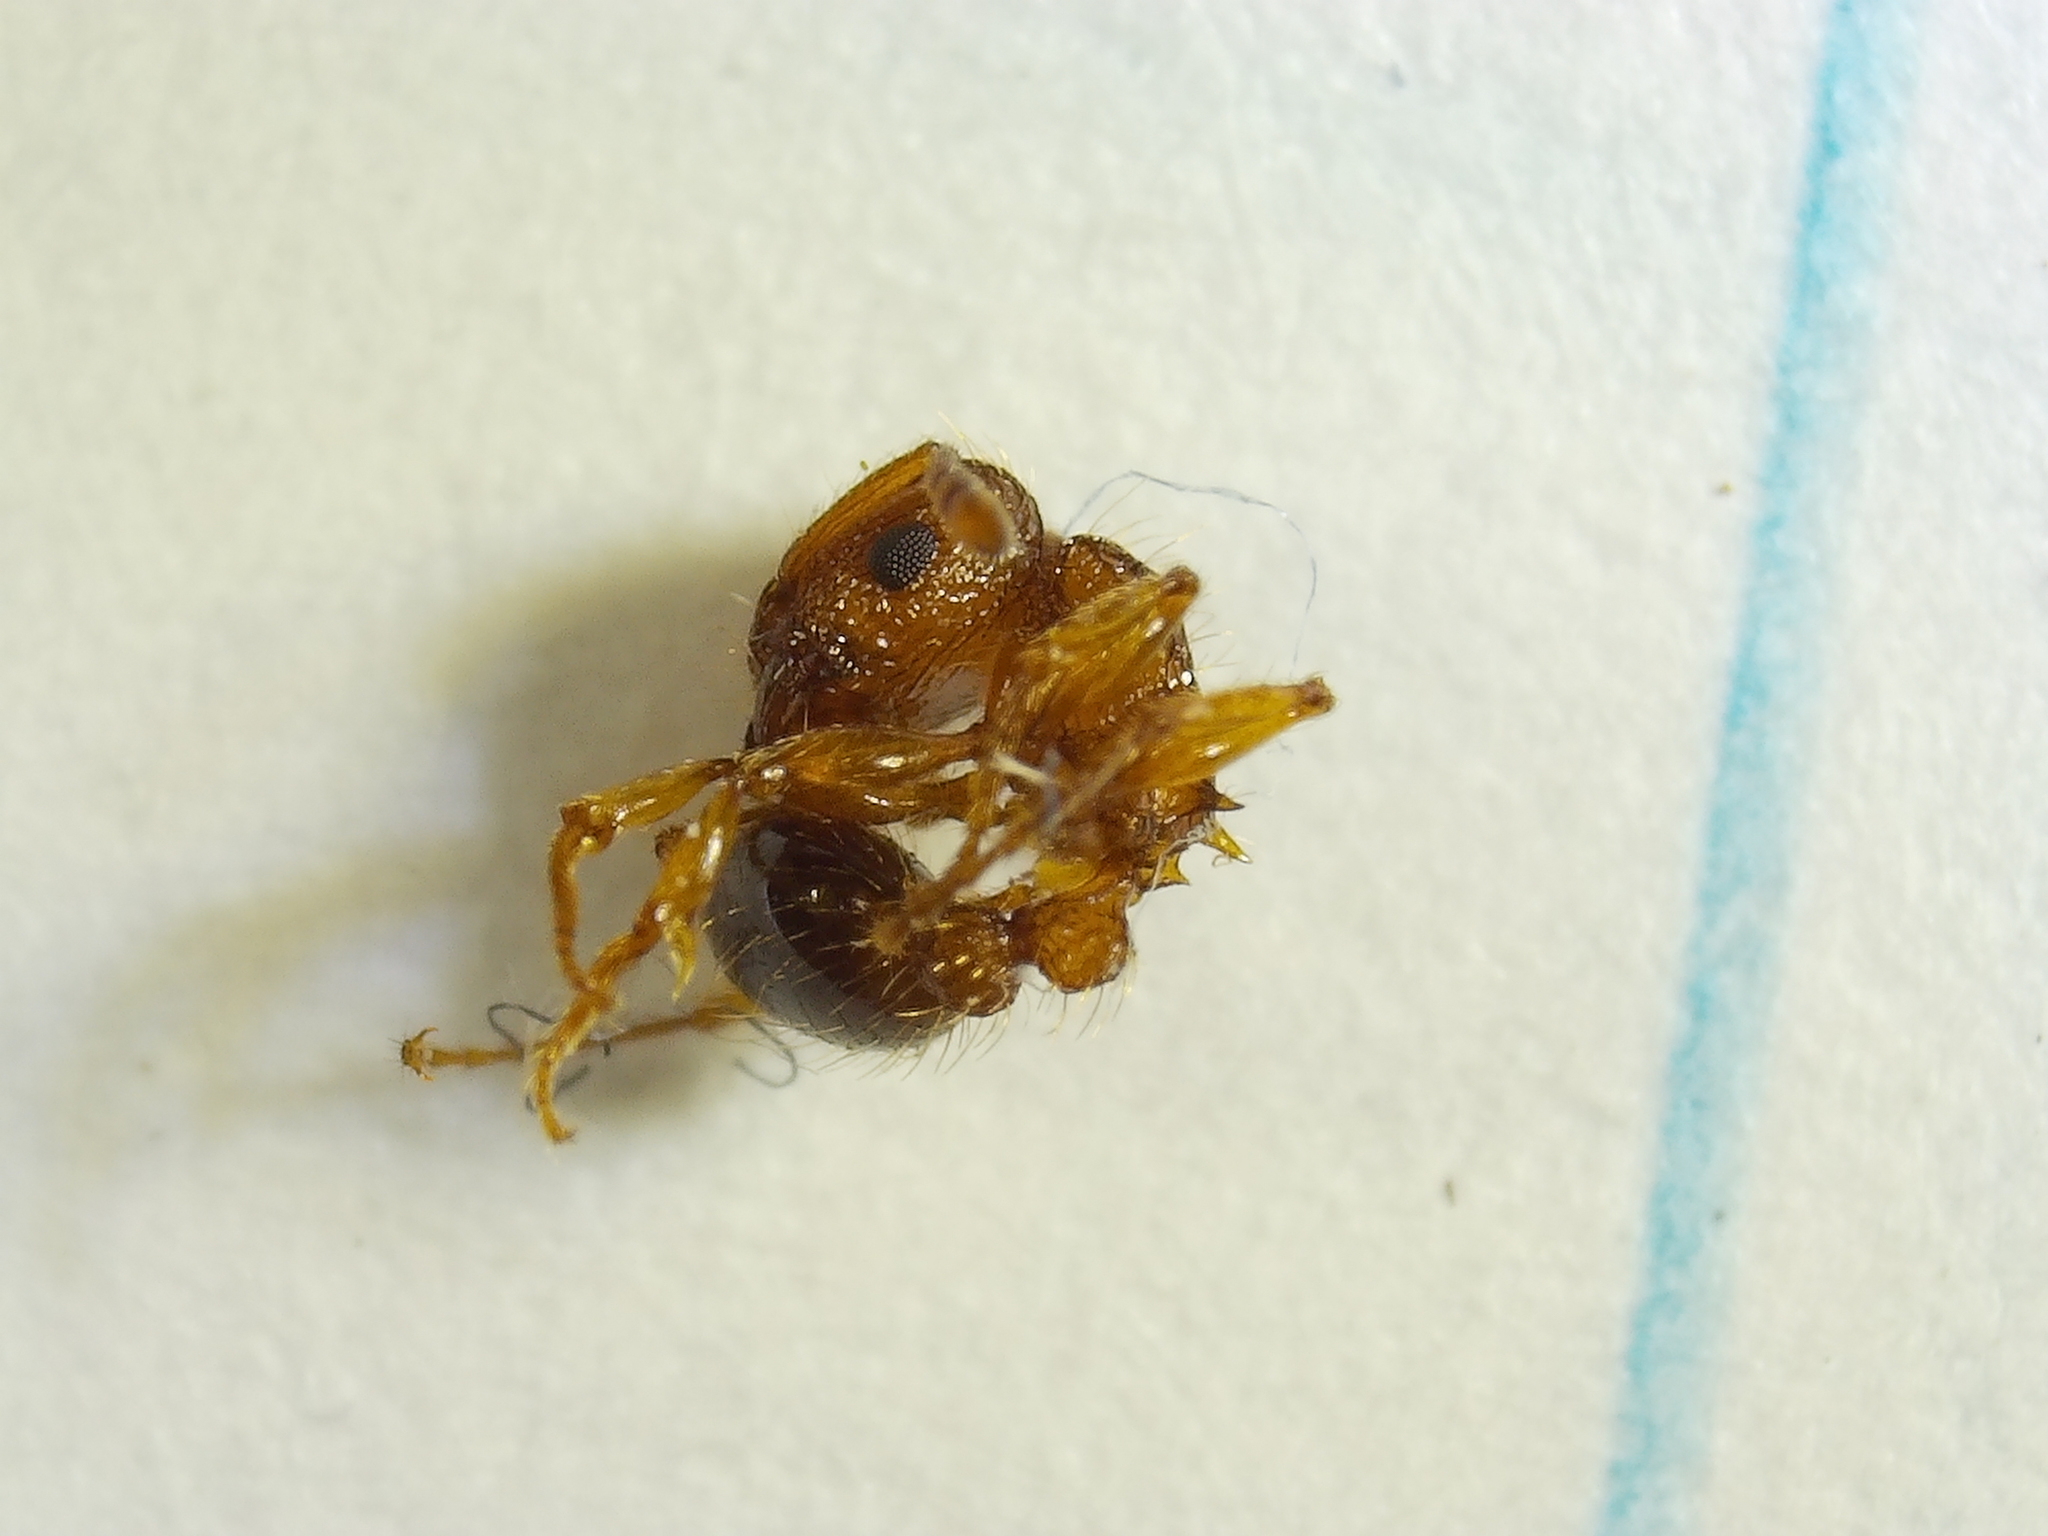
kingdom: Animalia
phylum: Arthropoda
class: Insecta
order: Hymenoptera
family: Formicidae
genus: Tetramorium
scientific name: Tetramorium bicarinatum
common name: Guinea ant
